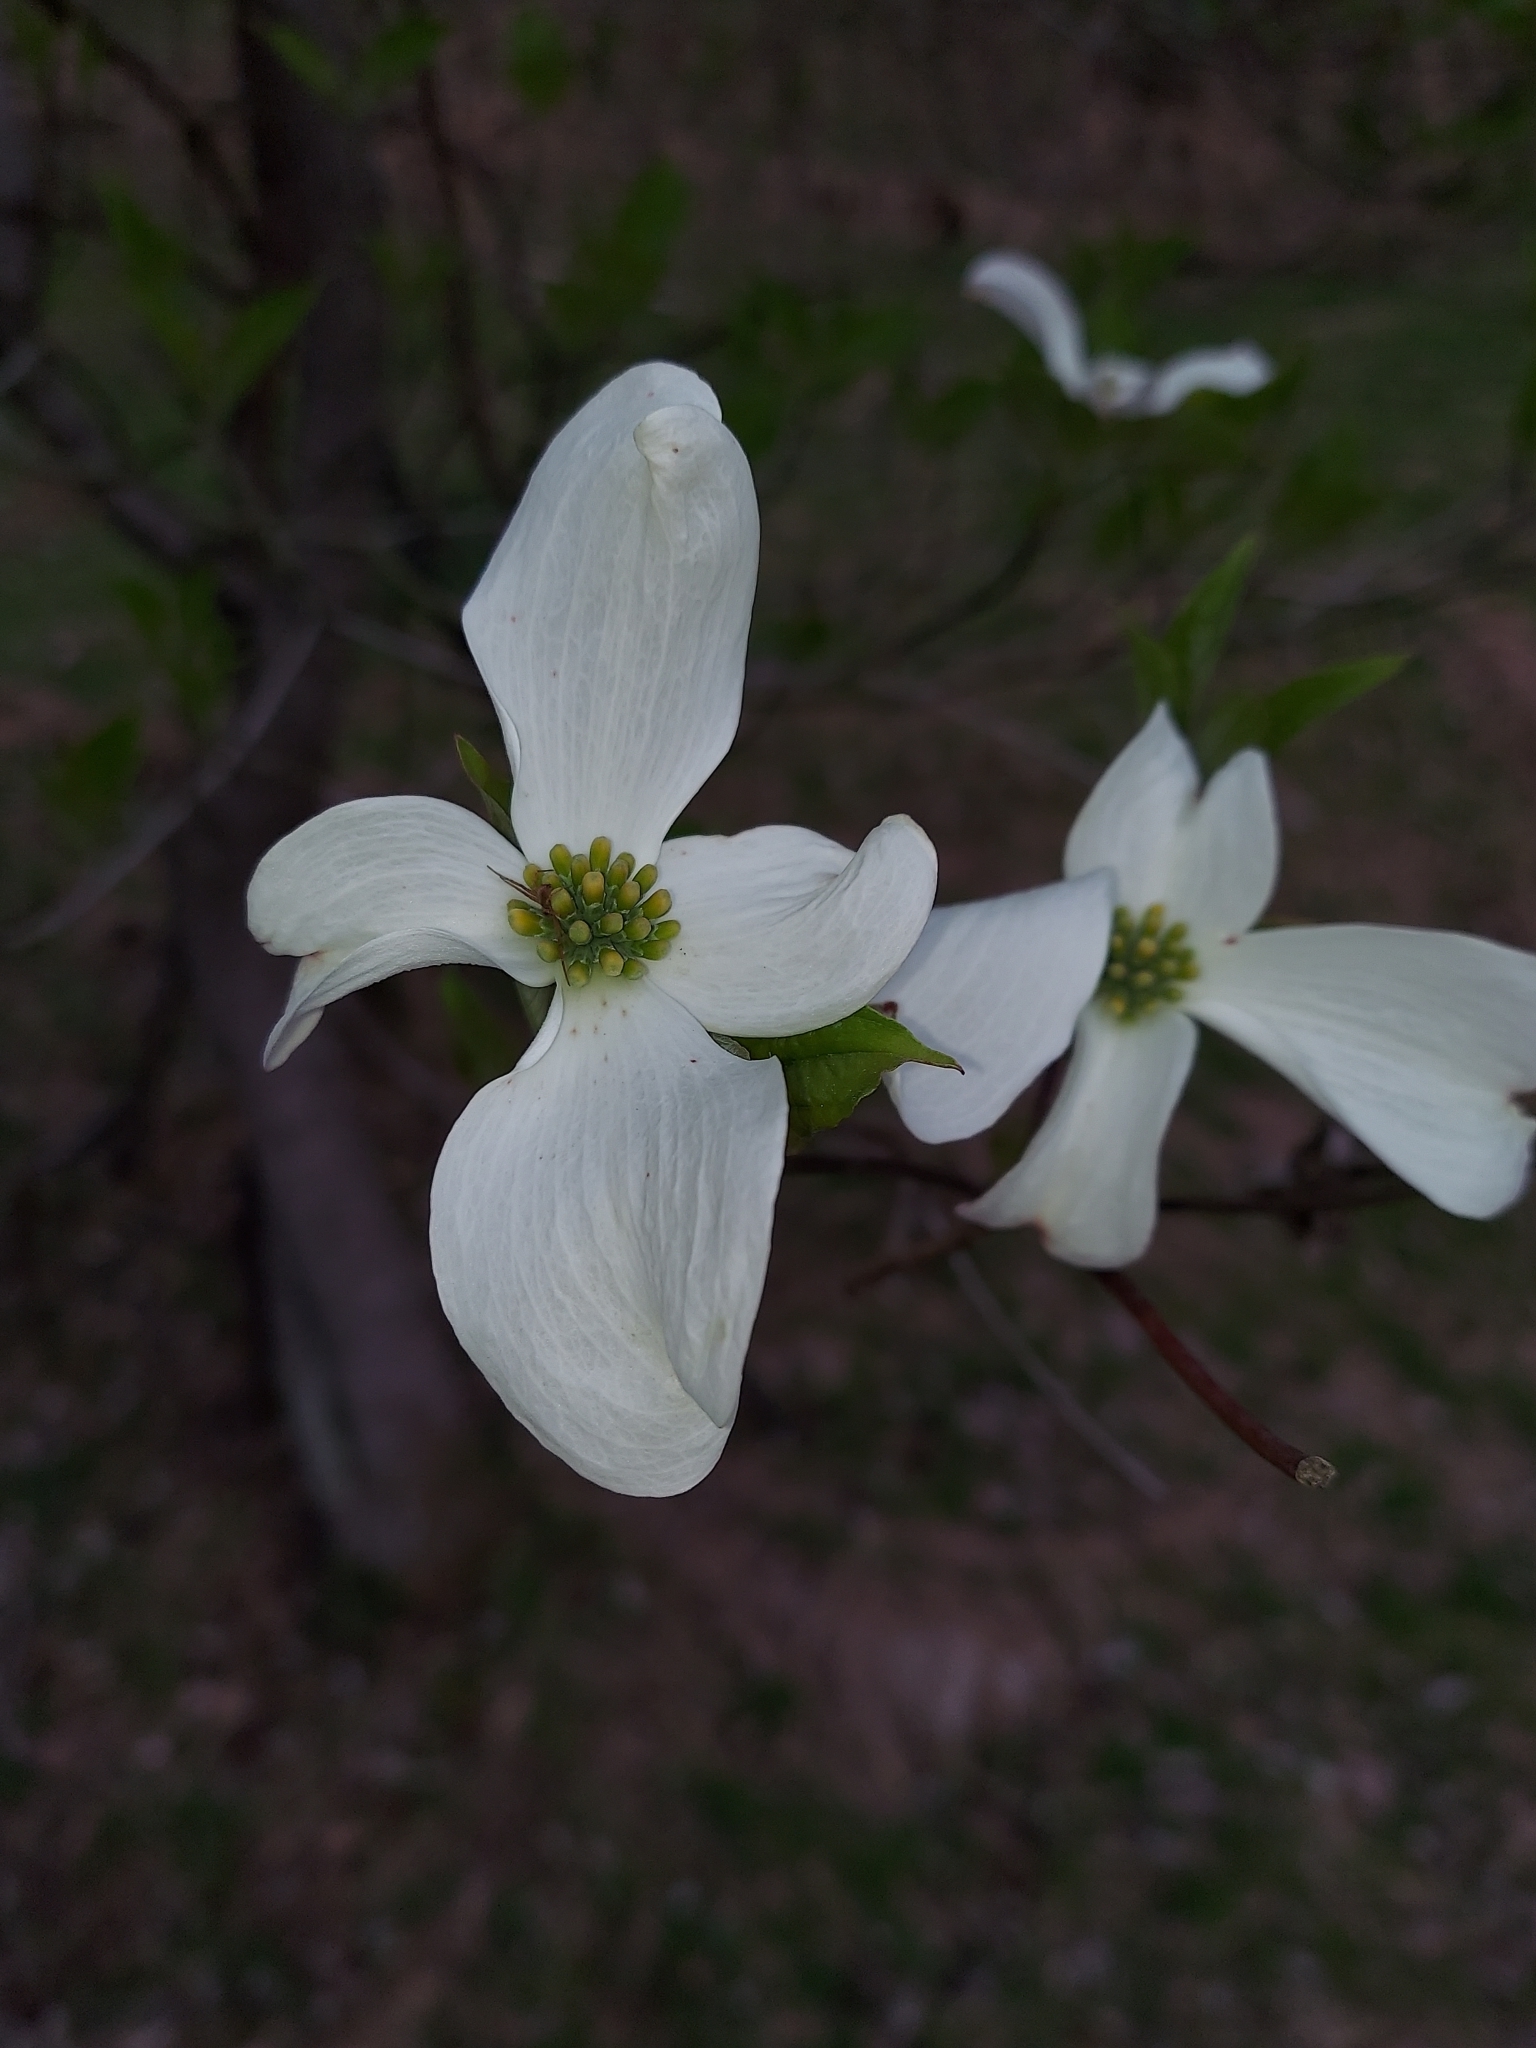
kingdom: Plantae
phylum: Tracheophyta
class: Magnoliopsida
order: Cornales
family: Cornaceae
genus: Cornus
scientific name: Cornus florida
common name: Flowering dogwood
